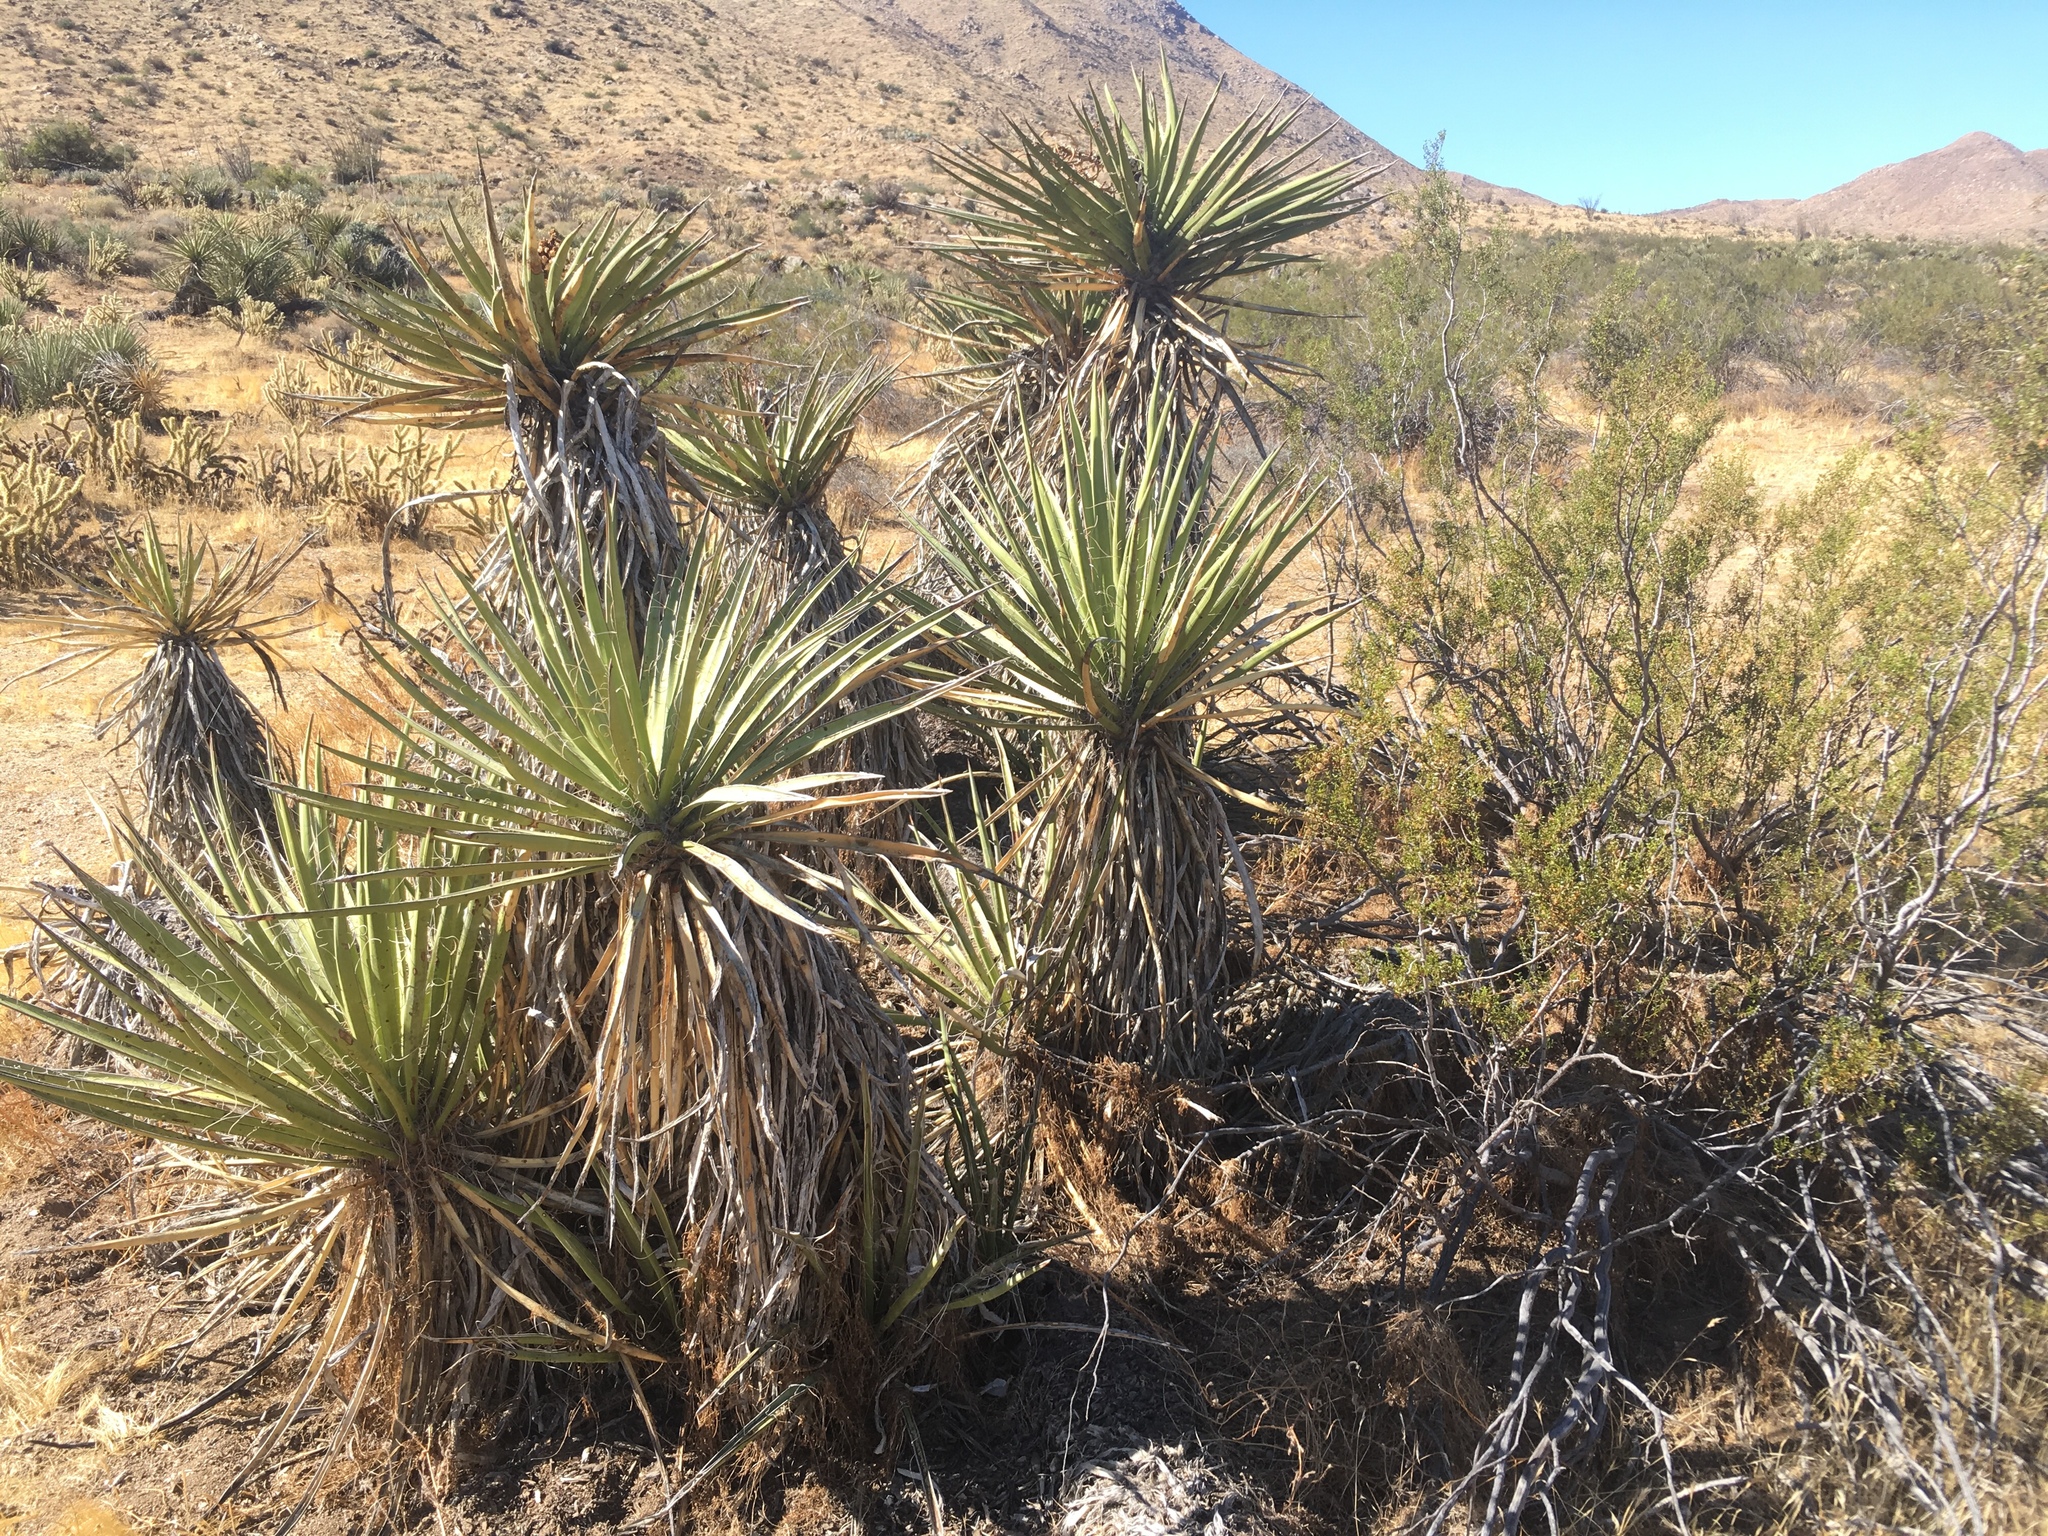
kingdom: Plantae
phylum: Tracheophyta
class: Liliopsida
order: Asparagales
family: Asparagaceae
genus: Yucca
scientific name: Yucca schidigera
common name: Mojave yucca
